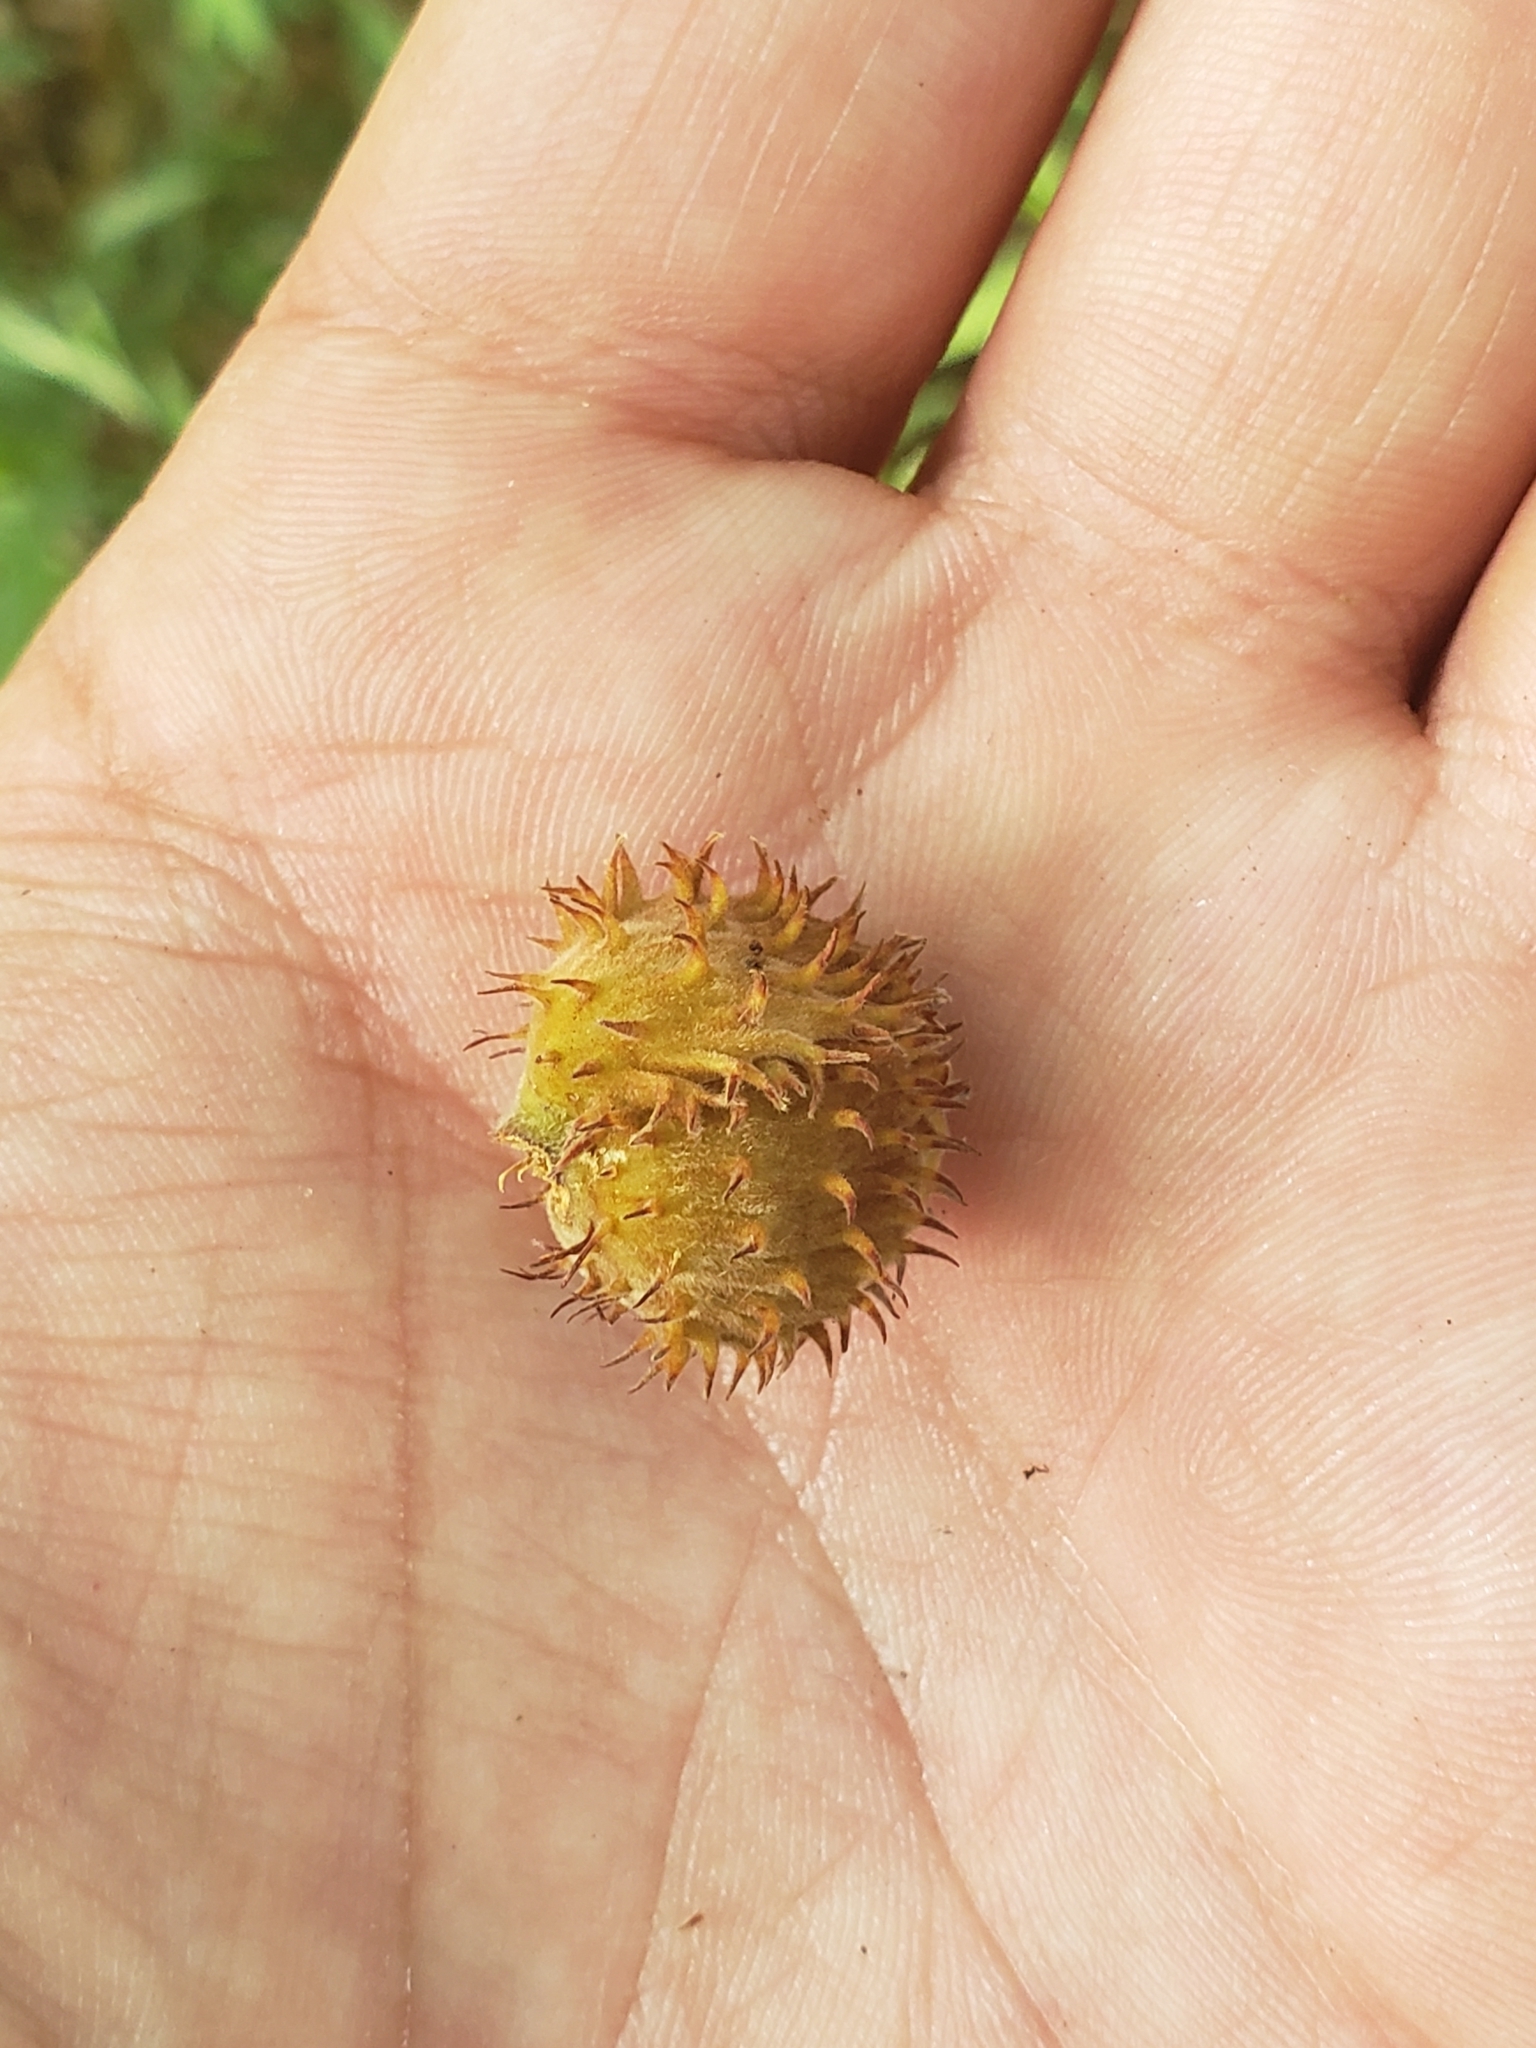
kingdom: Plantae
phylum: Tracheophyta
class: Magnoliopsida
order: Fagales
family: Fagaceae
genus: Fagus
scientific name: Fagus grandifolia
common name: American beech
